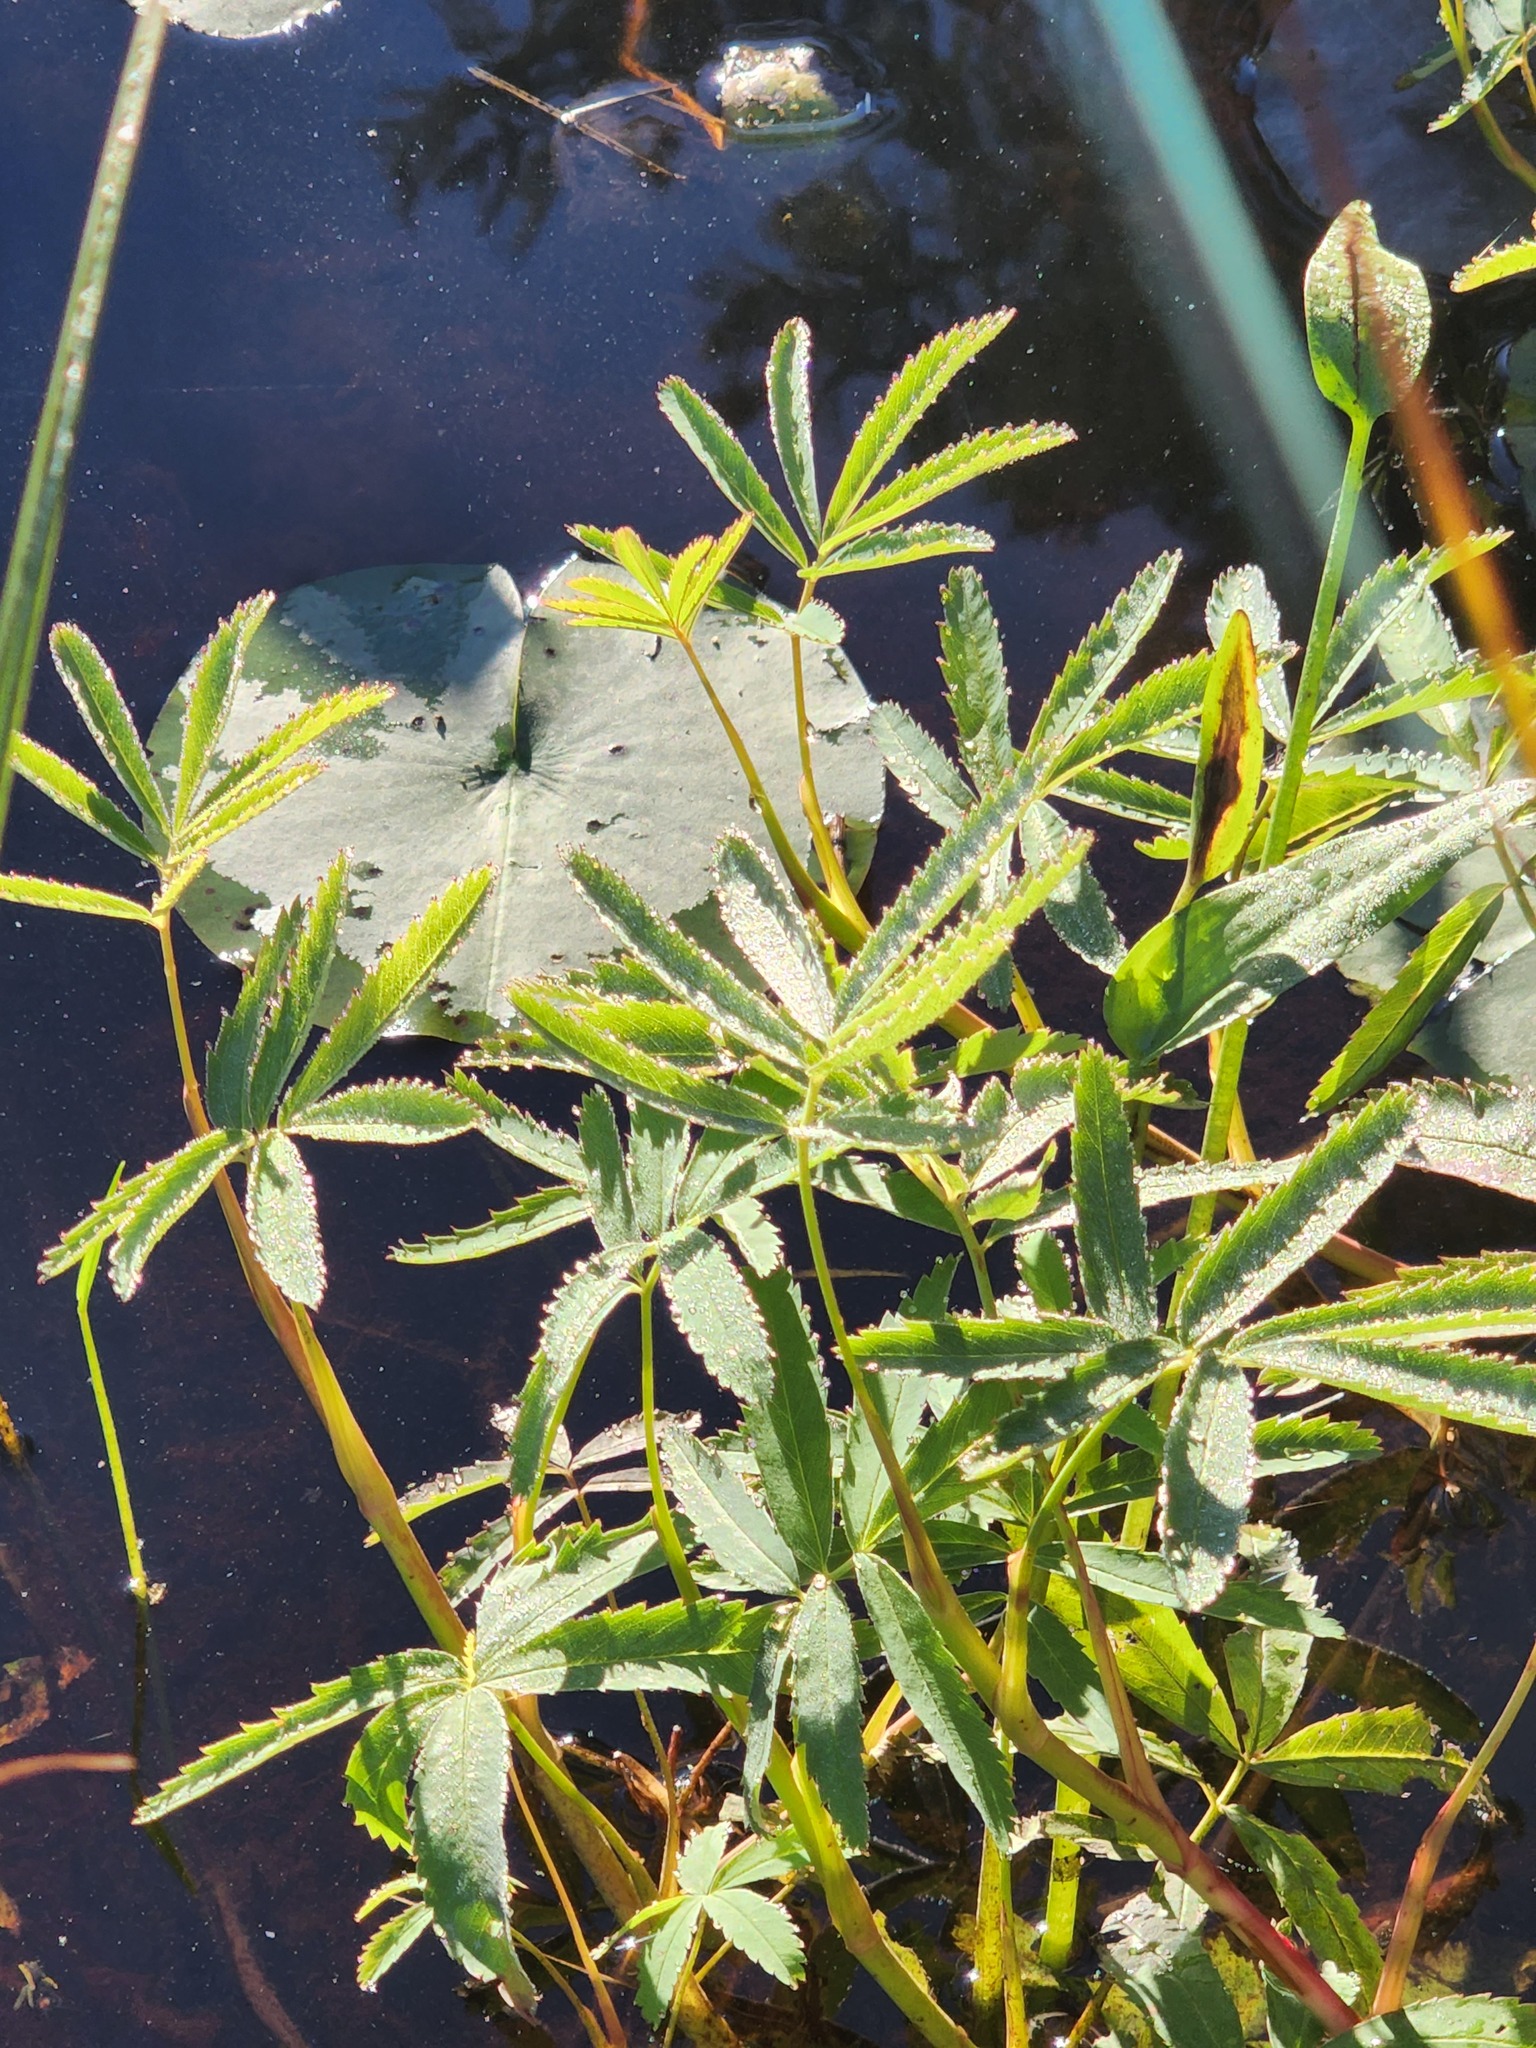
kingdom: Plantae
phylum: Tracheophyta
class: Magnoliopsida
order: Rosales
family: Rosaceae
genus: Comarum
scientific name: Comarum palustre
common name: Marsh cinquefoil
